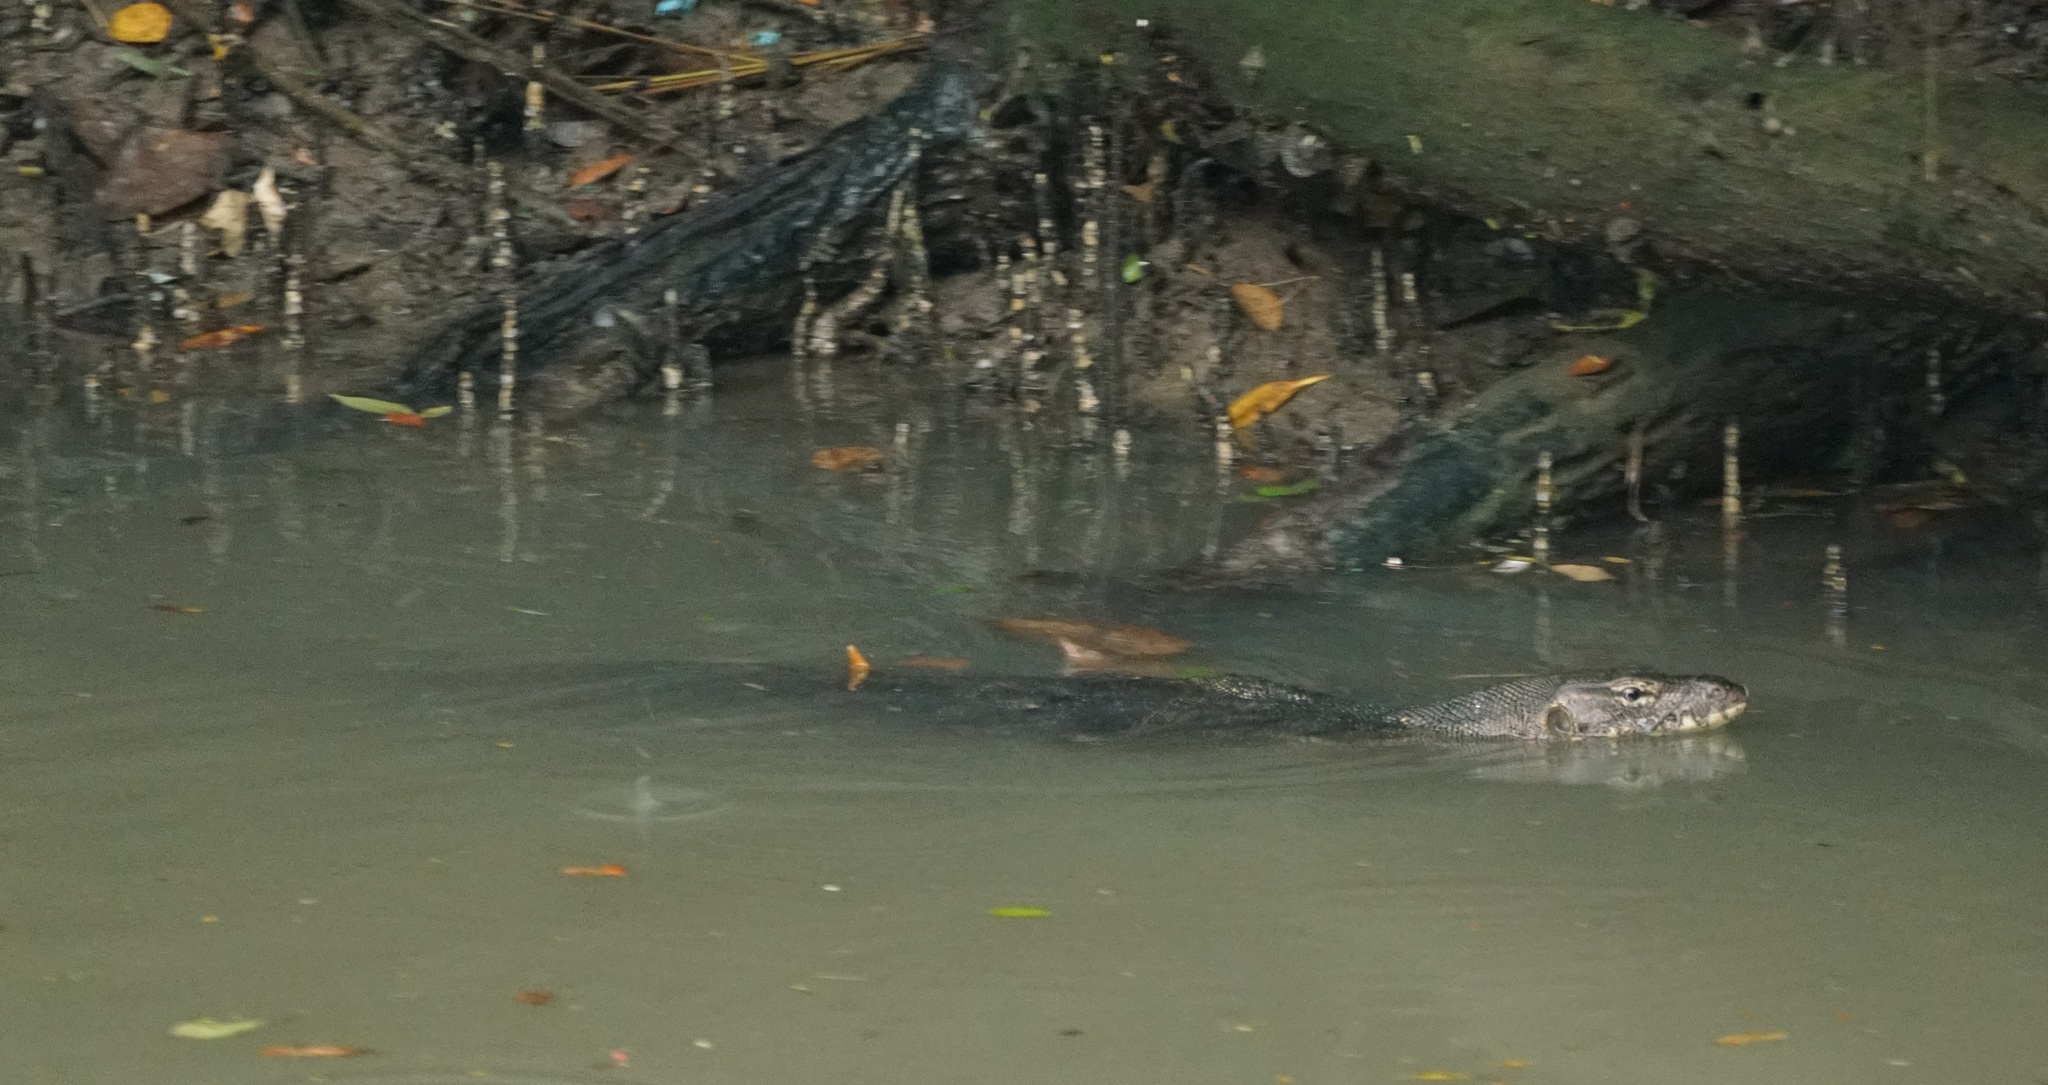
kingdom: Animalia
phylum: Chordata
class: Squamata
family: Varanidae
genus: Varanus
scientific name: Varanus salvator
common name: Common water monitor
